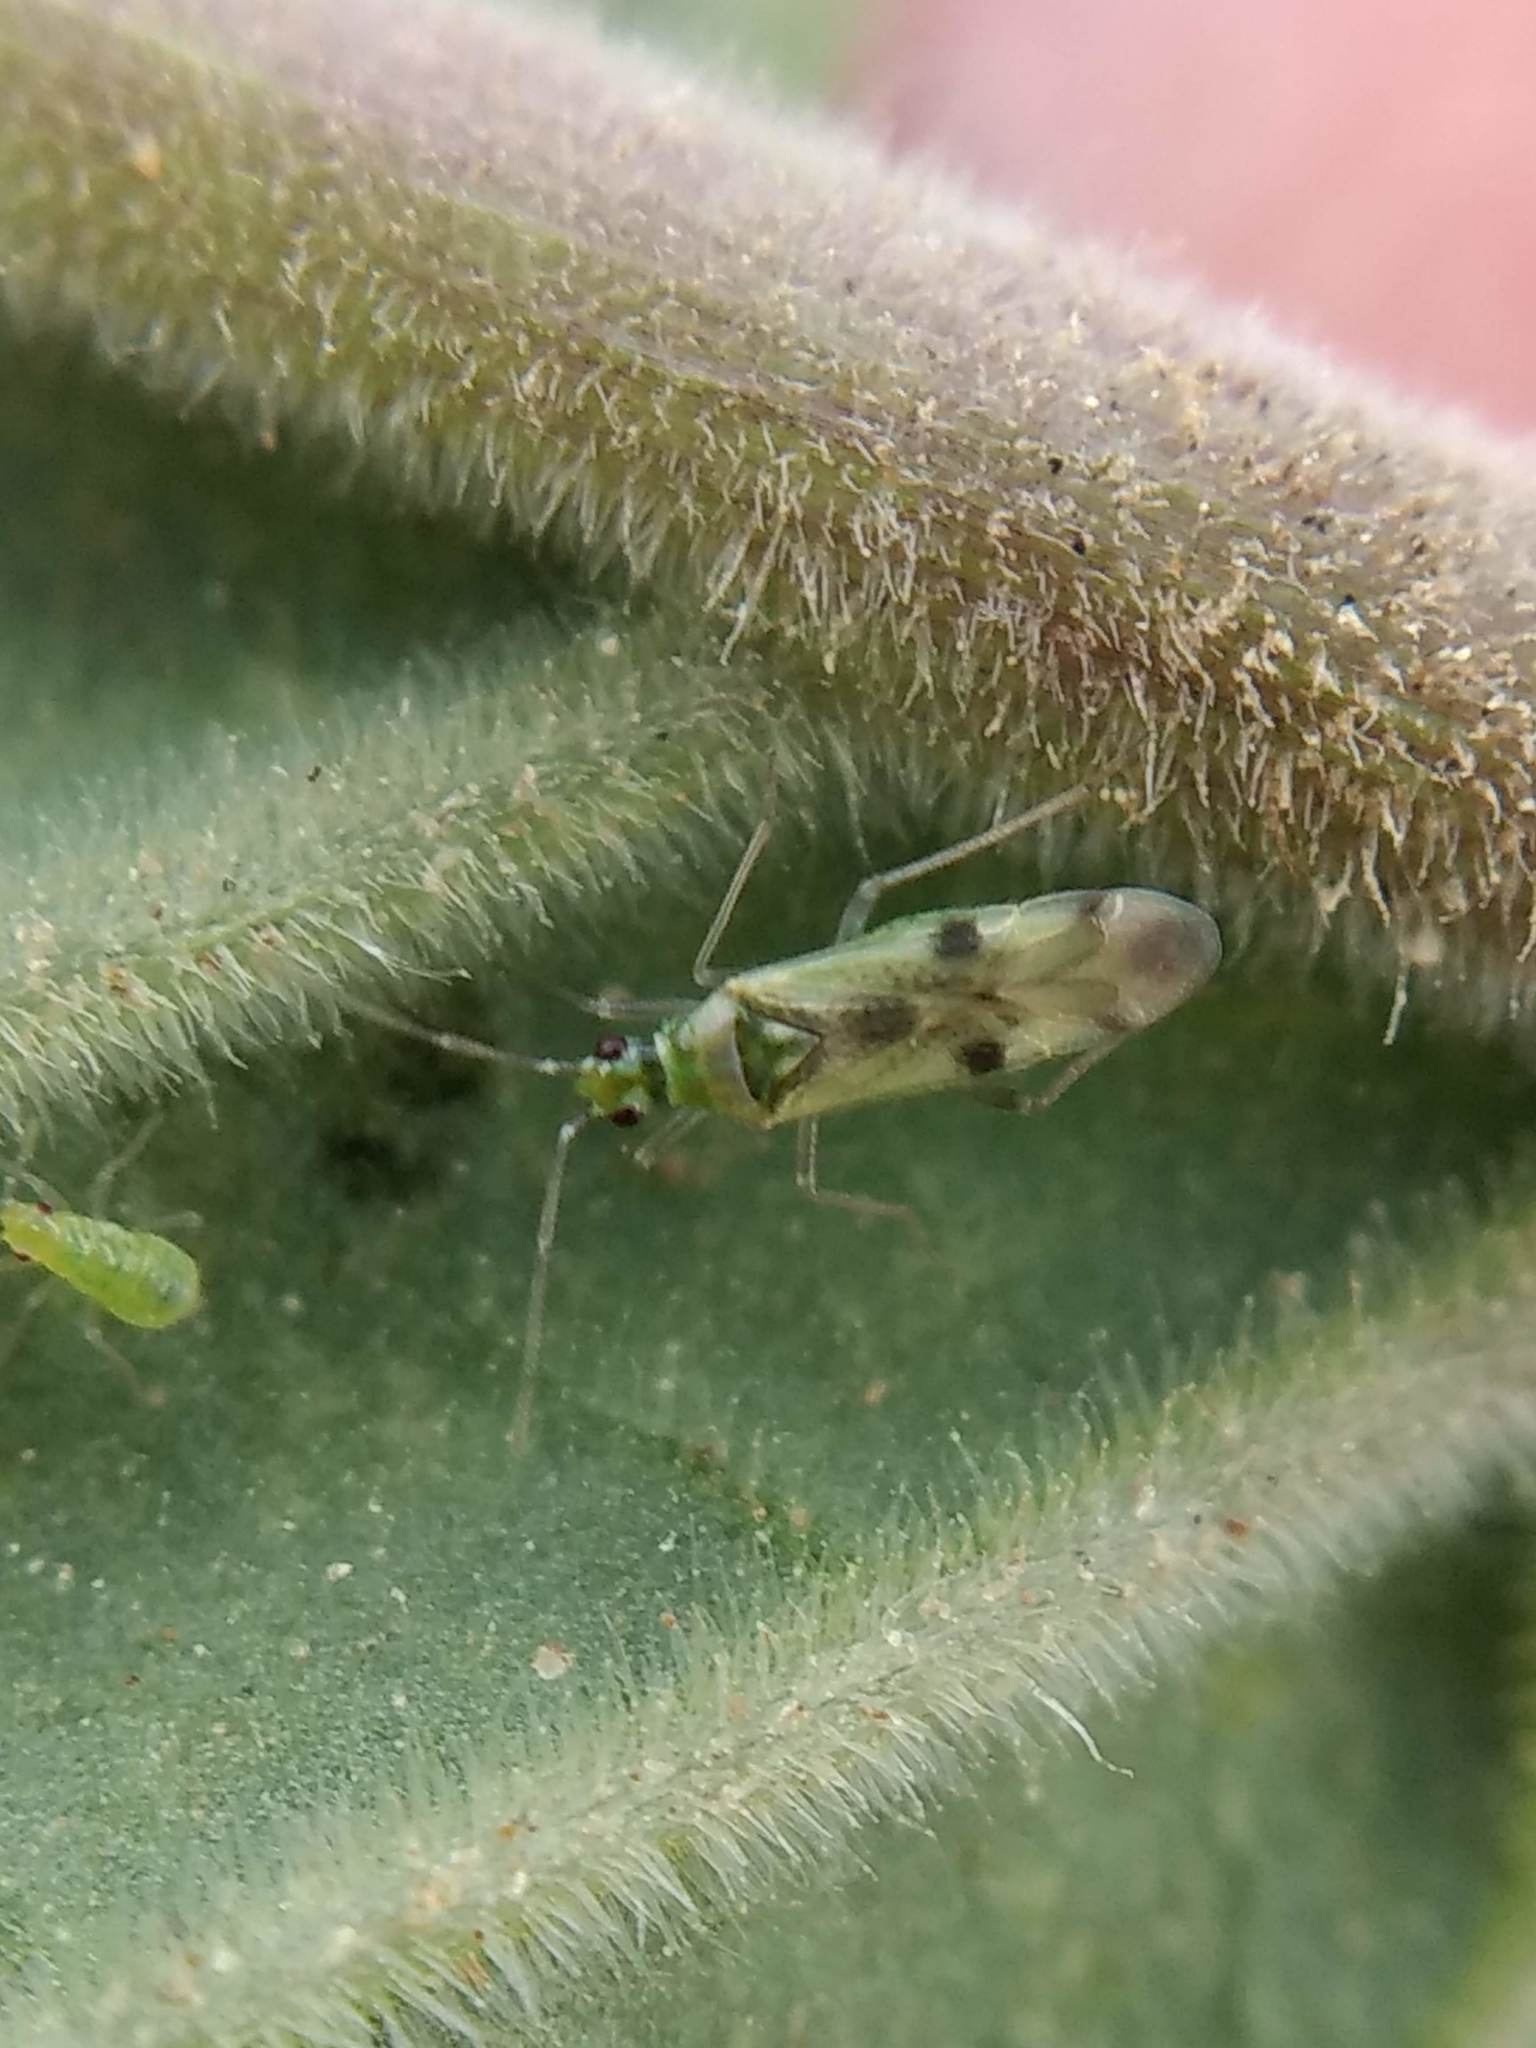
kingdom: Animalia
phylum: Arthropoda
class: Insecta
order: Hemiptera
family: Miridae
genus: Tupiocoris
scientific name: Tupiocoris notatus
